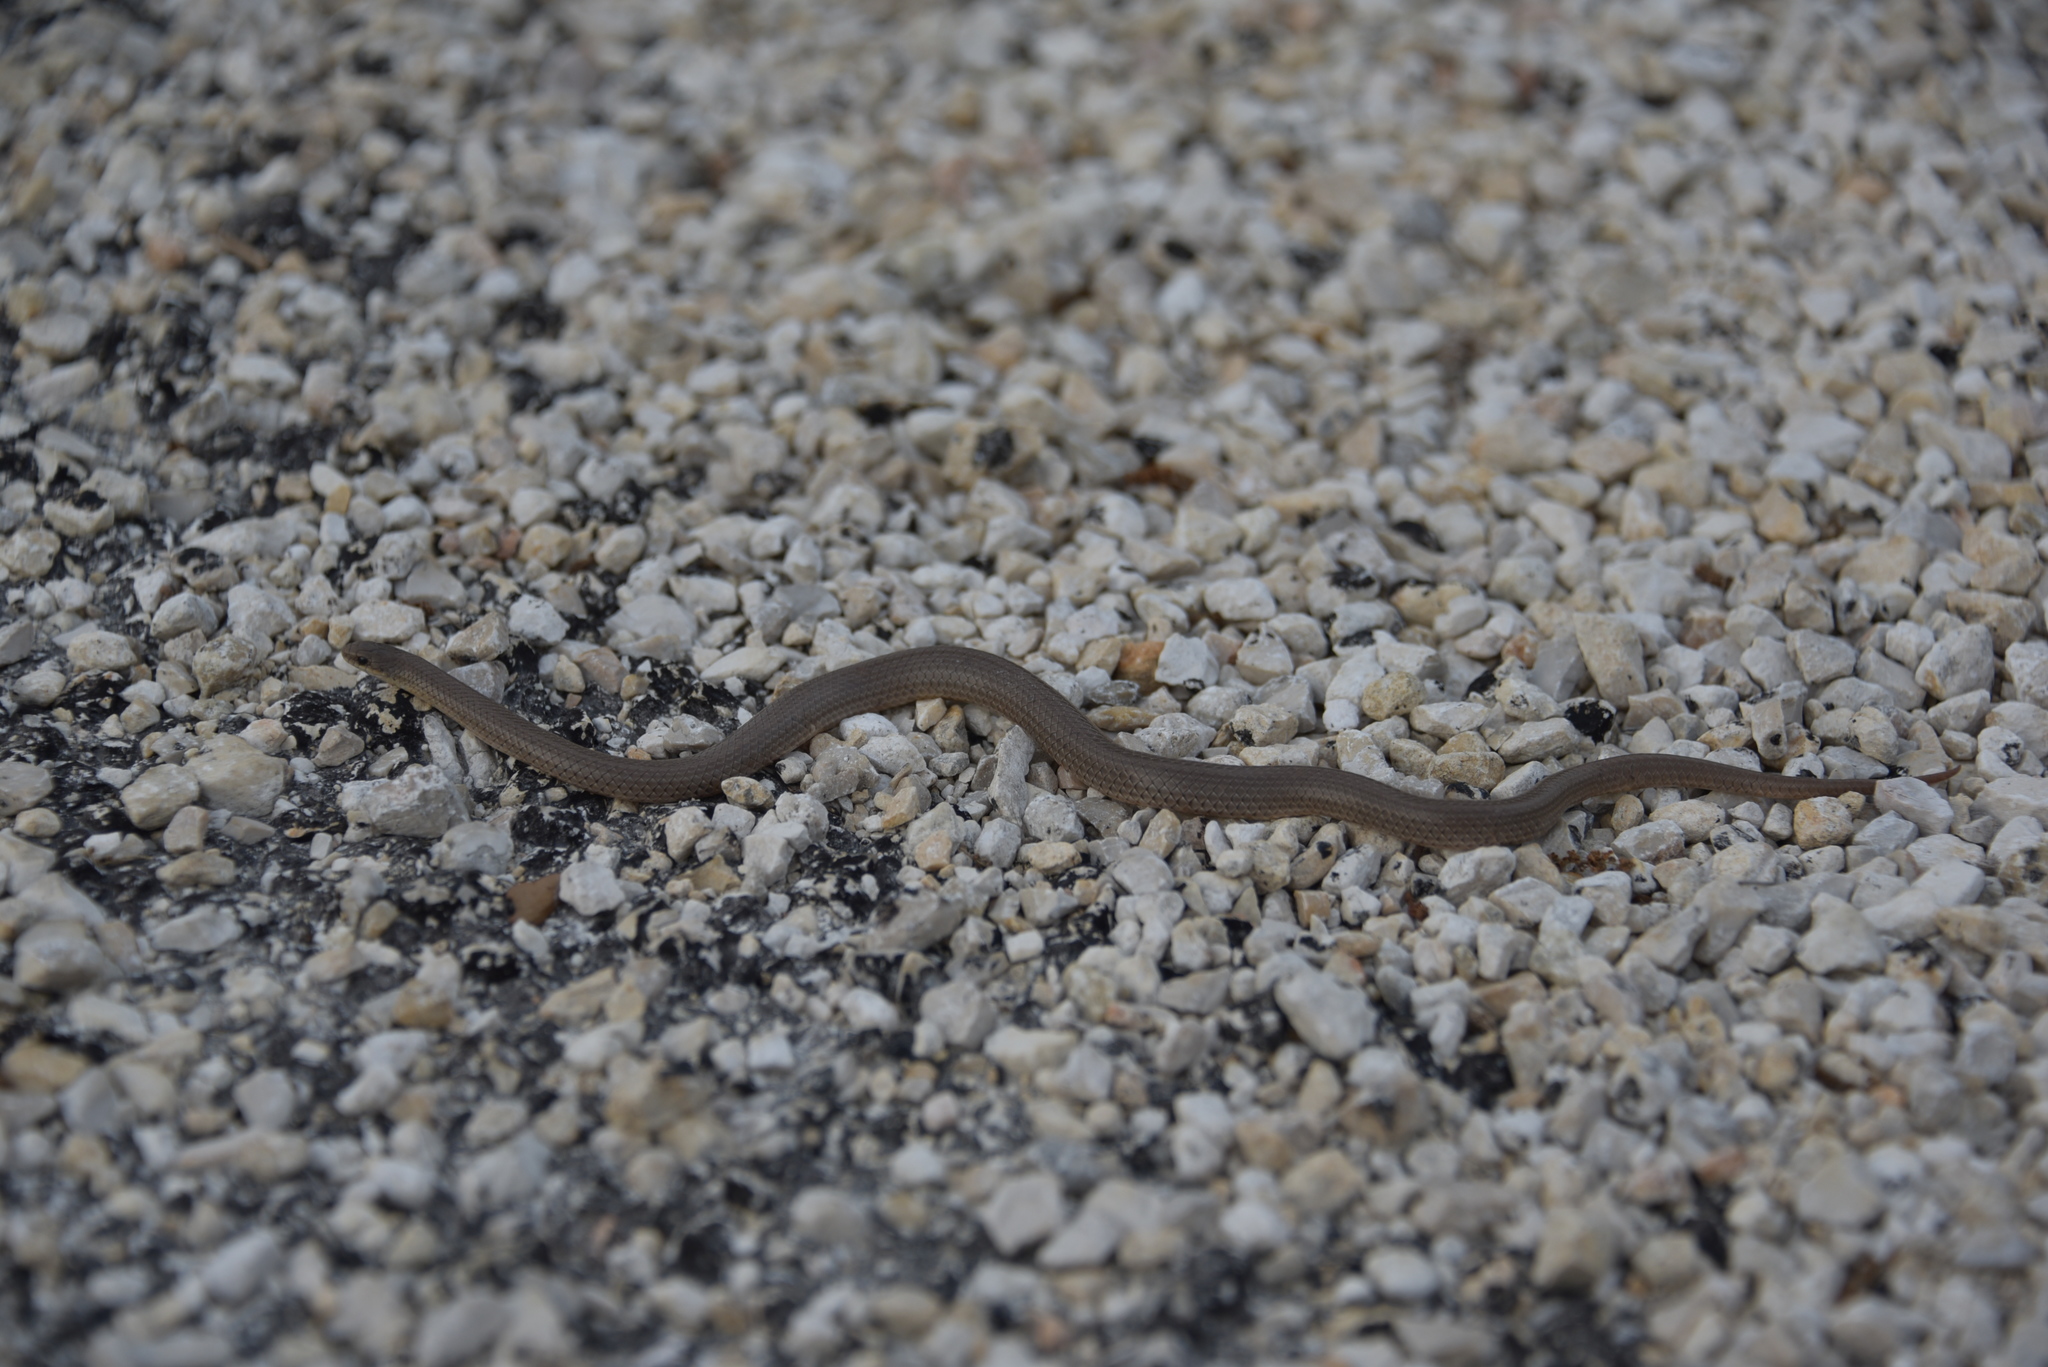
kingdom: Animalia
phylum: Chordata
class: Squamata
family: Colubridae
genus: Haldea
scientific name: Haldea striatula
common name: Rough earth snake
